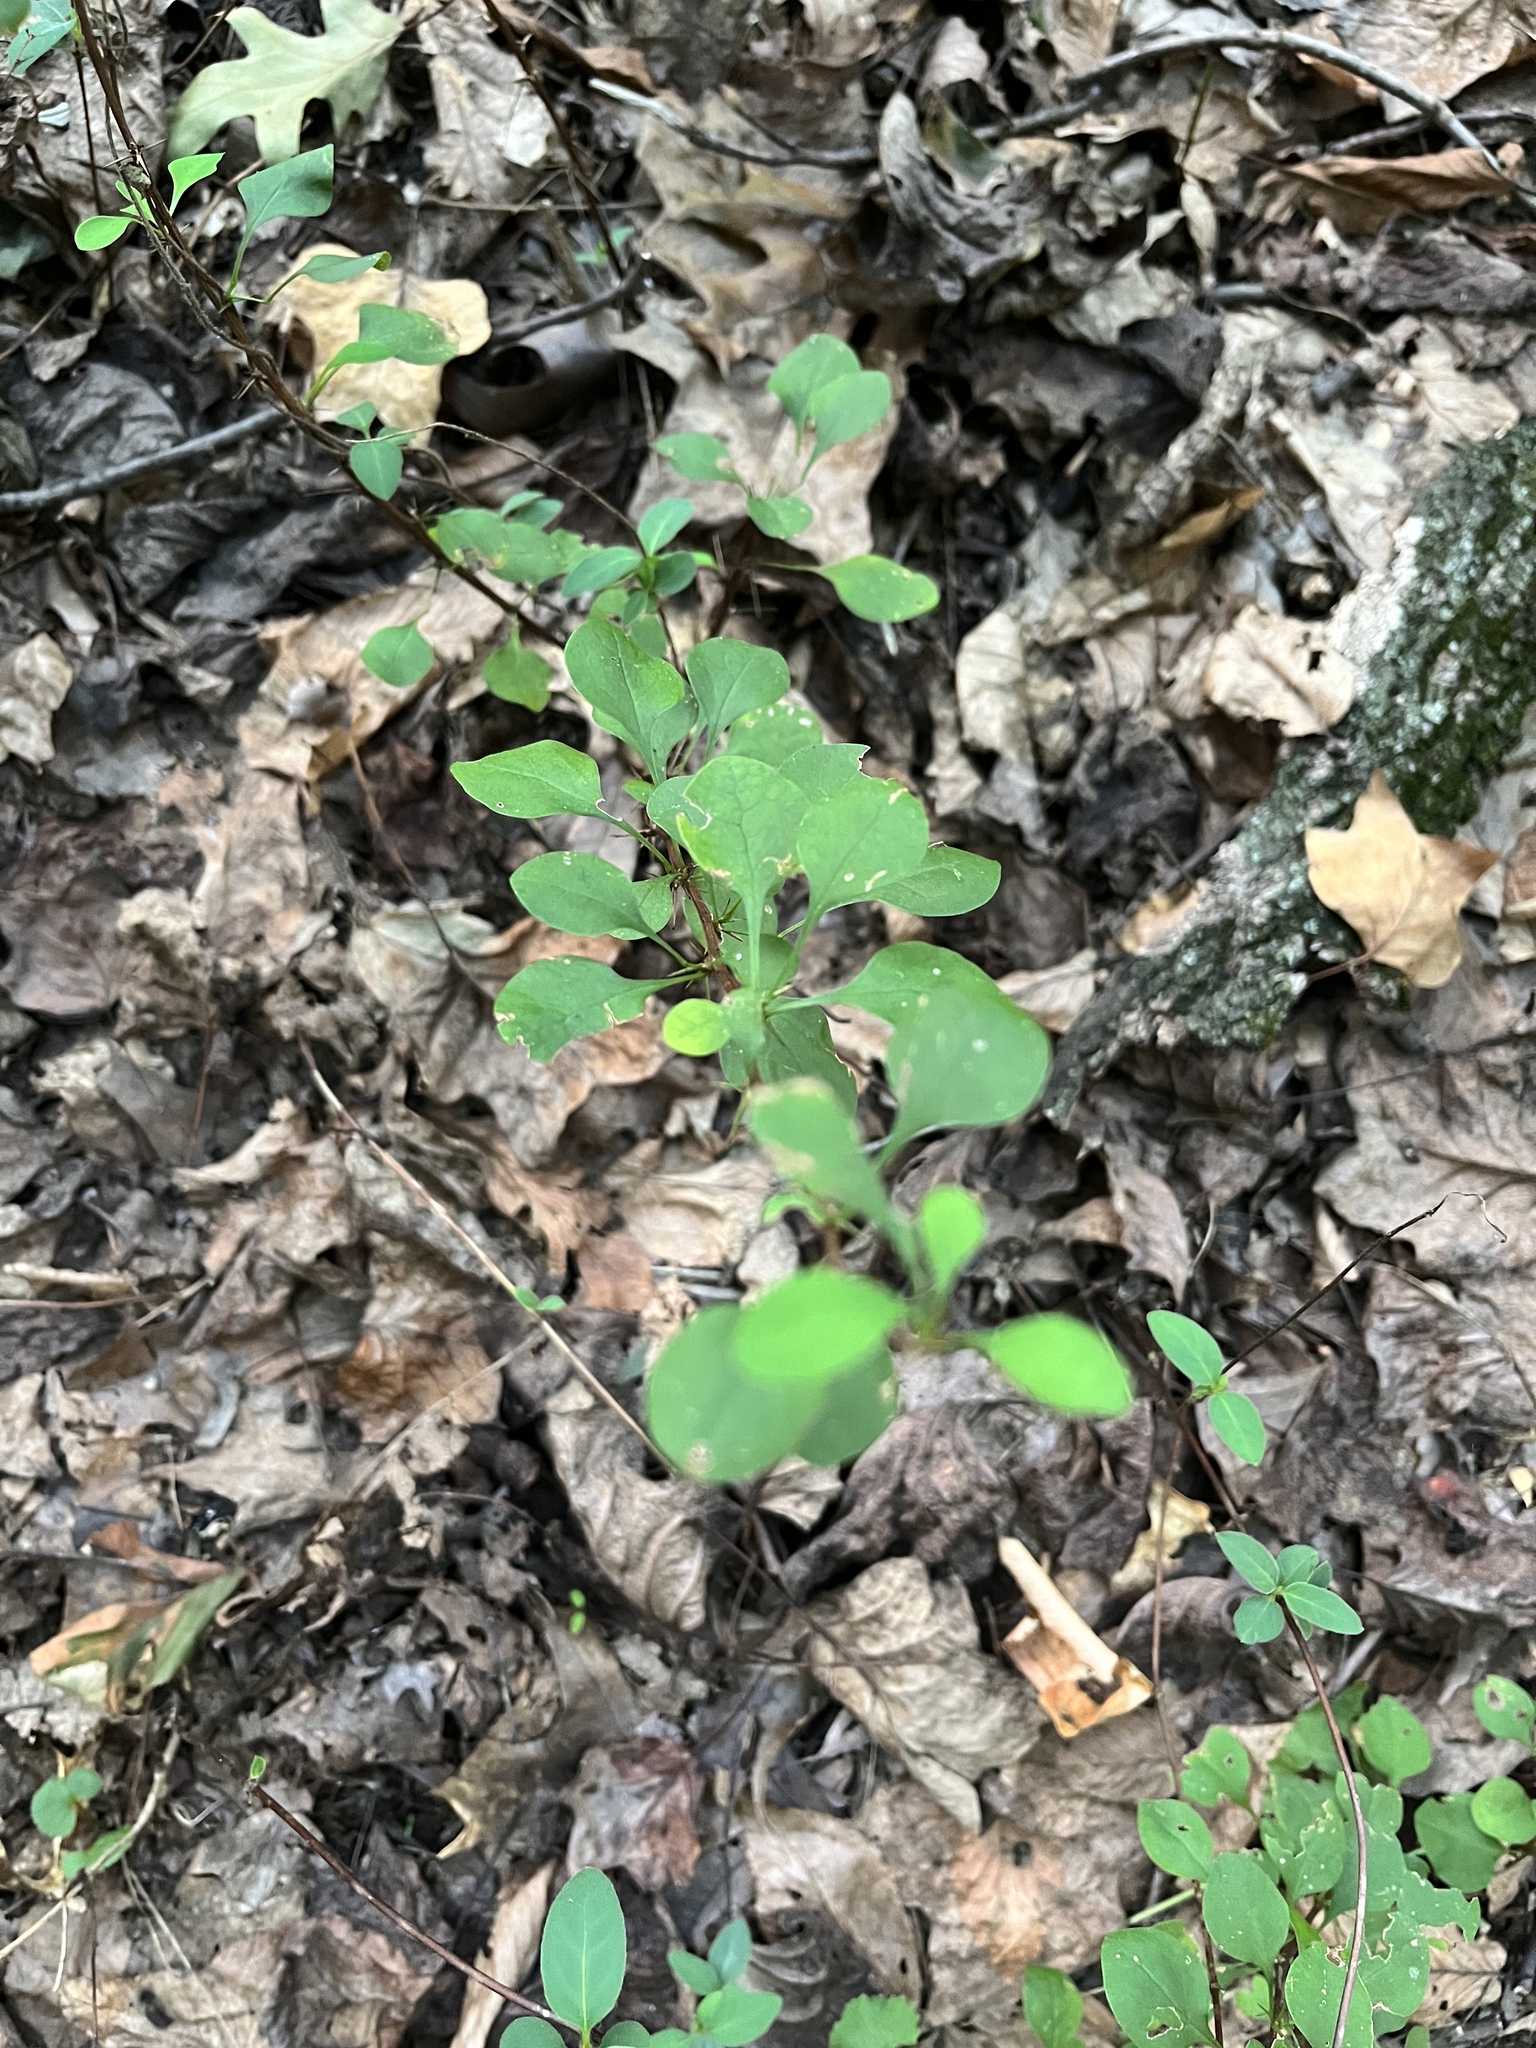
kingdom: Plantae
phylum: Tracheophyta
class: Magnoliopsida
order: Ranunculales
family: Berberidaceae
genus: Berberis
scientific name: Berberis thunbergii
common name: Japanese barberry
